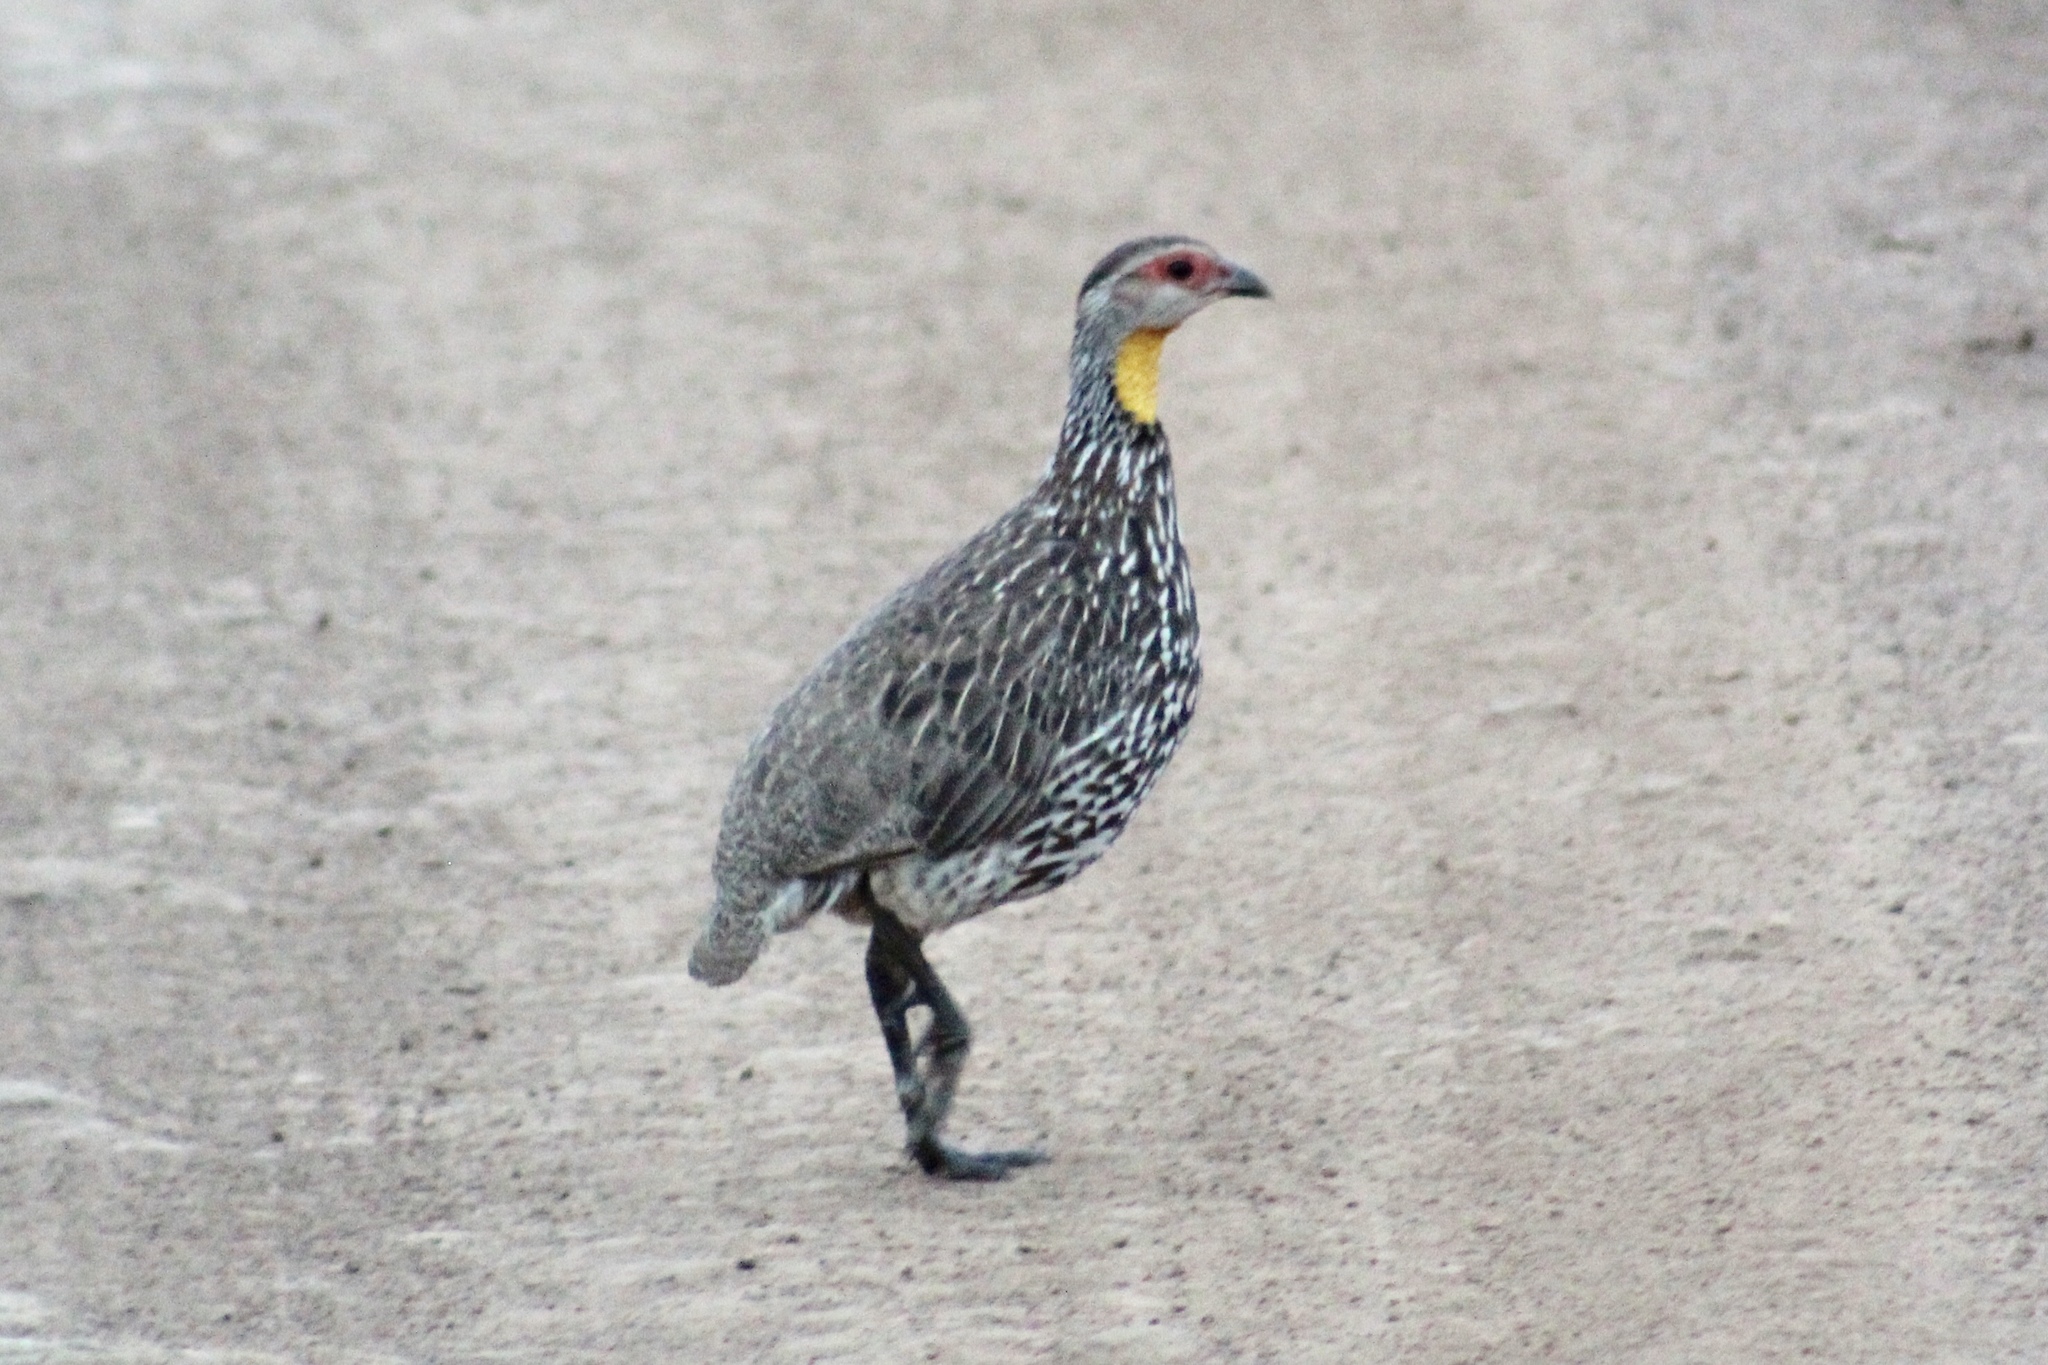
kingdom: Animalia
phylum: Chordata
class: Aves
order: Galliformes
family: Phasianidae
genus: Pternistis
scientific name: Pternistis leucoscepus
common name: Yellow-necked spurfowl
